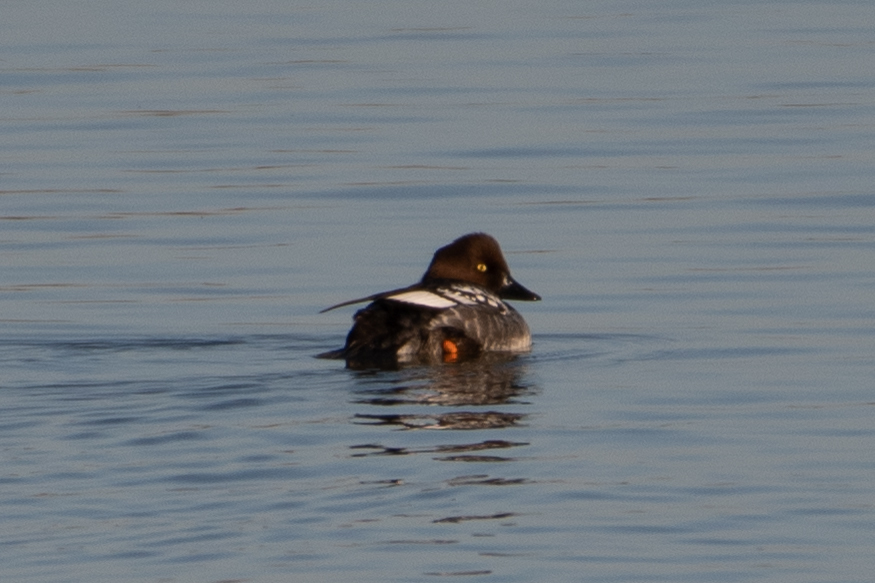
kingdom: Animalia
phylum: Chordata
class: Aves
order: Anseriformes
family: Anatidae
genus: Bucephala
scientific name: Bucephala clangula
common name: Common goldeneye
